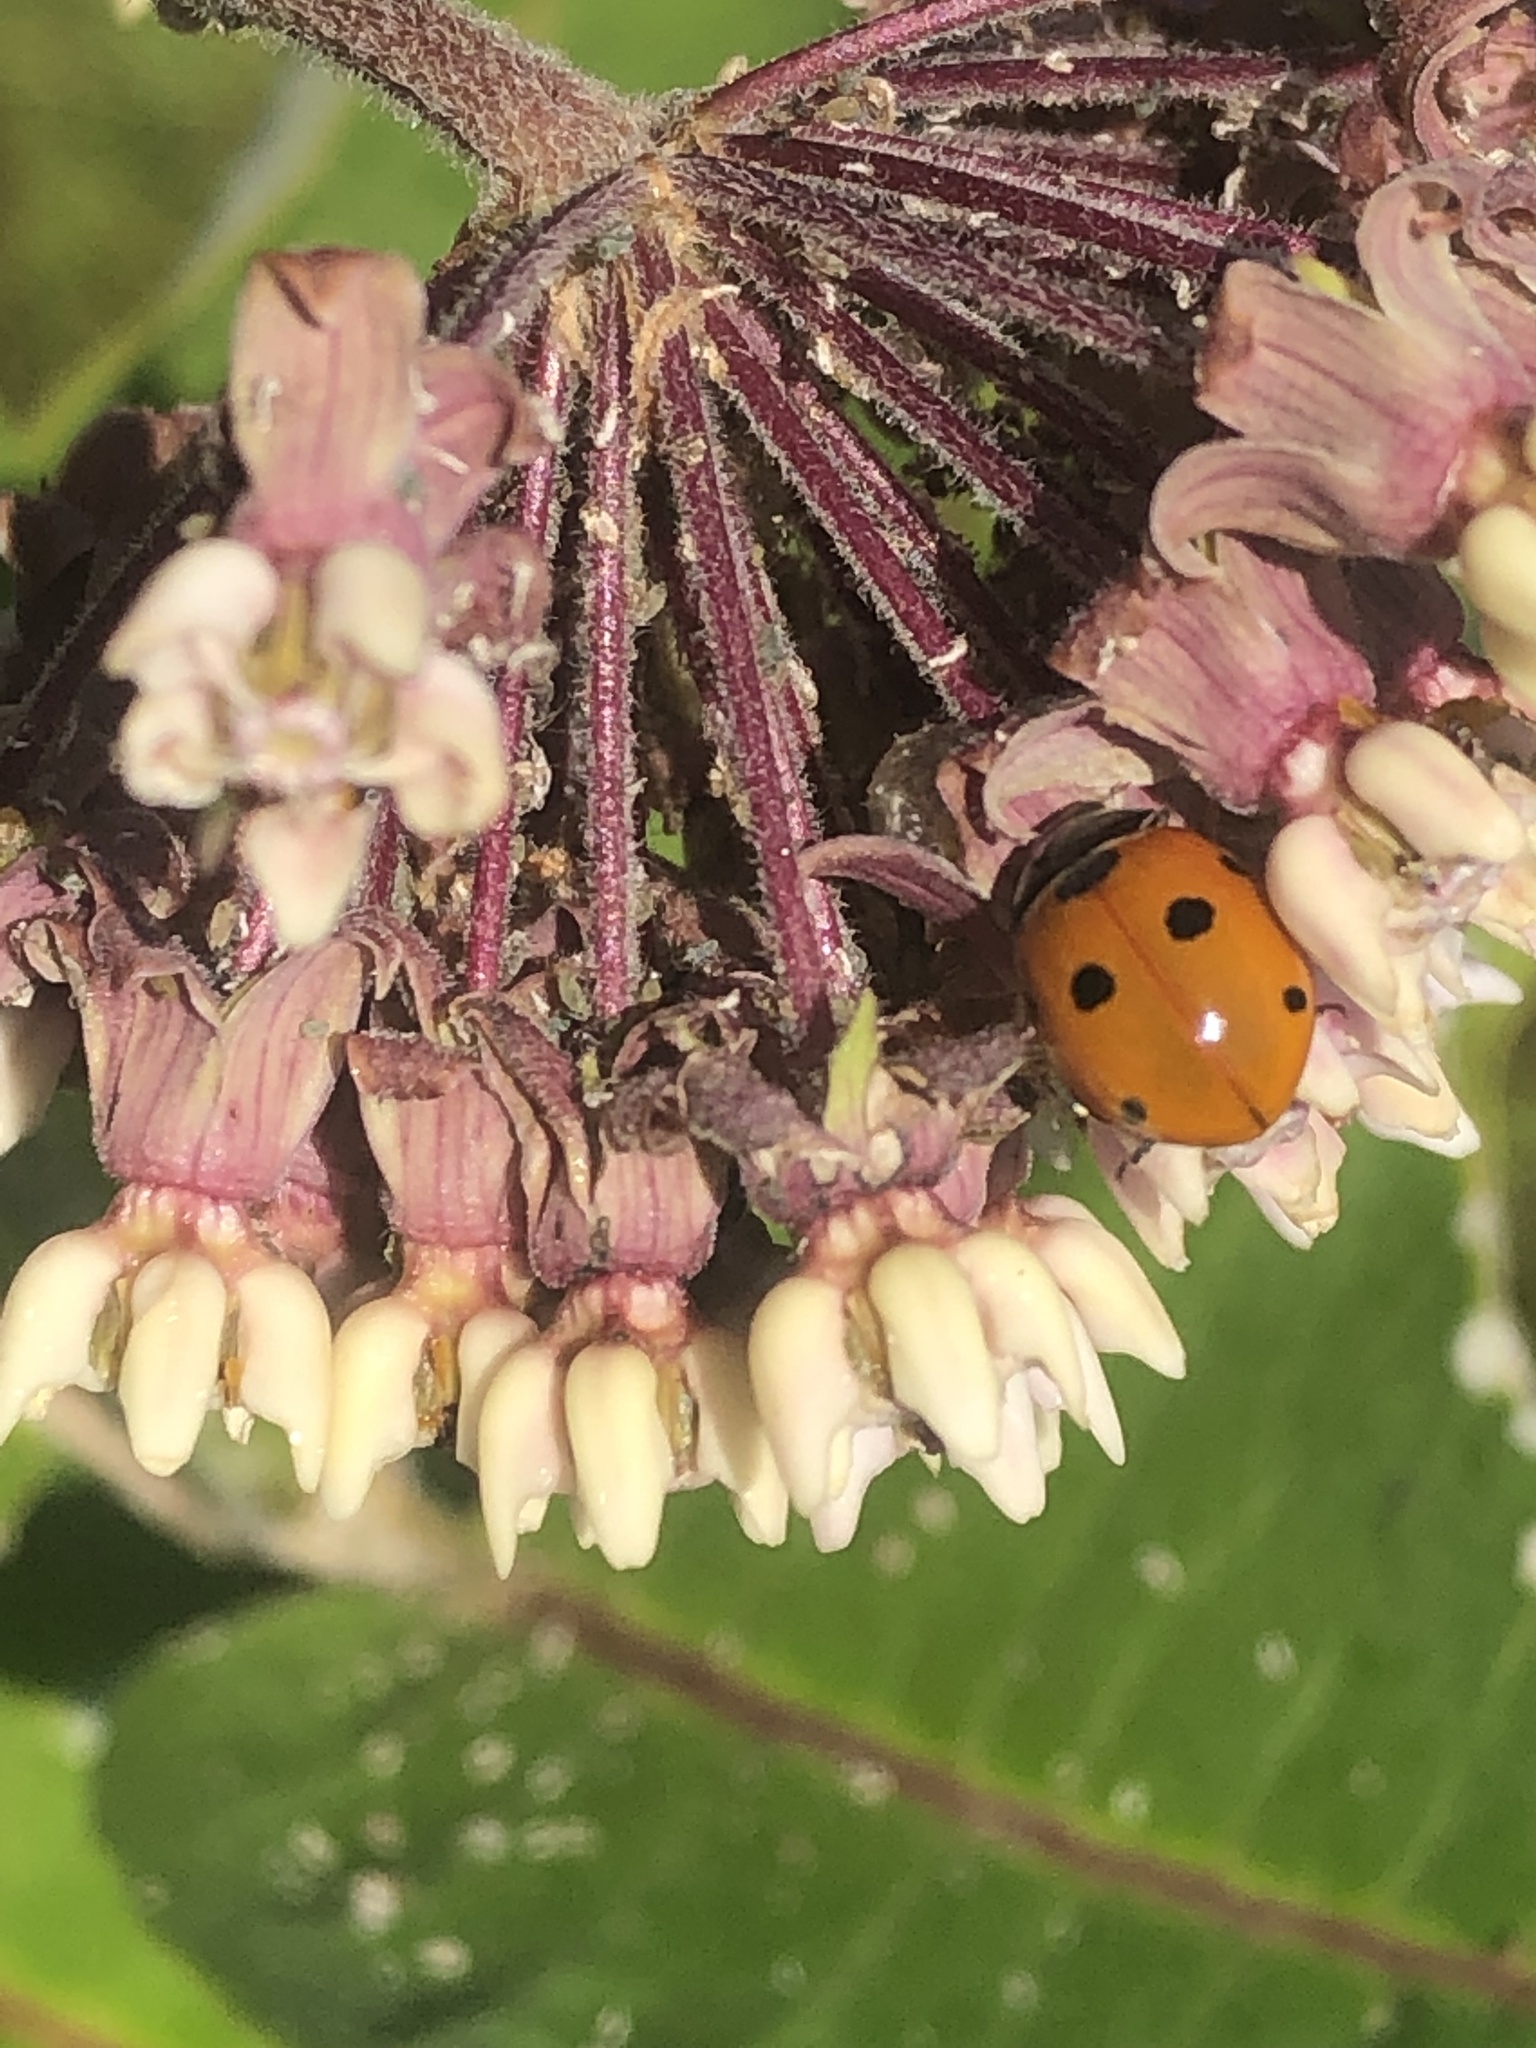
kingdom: Animalia
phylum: Arthropoda
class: Insecta
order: Coleoptera
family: Coccinellidae
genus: Coccinella
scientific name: Coccinella septempunctata
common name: Sevenspotted lady beetle
